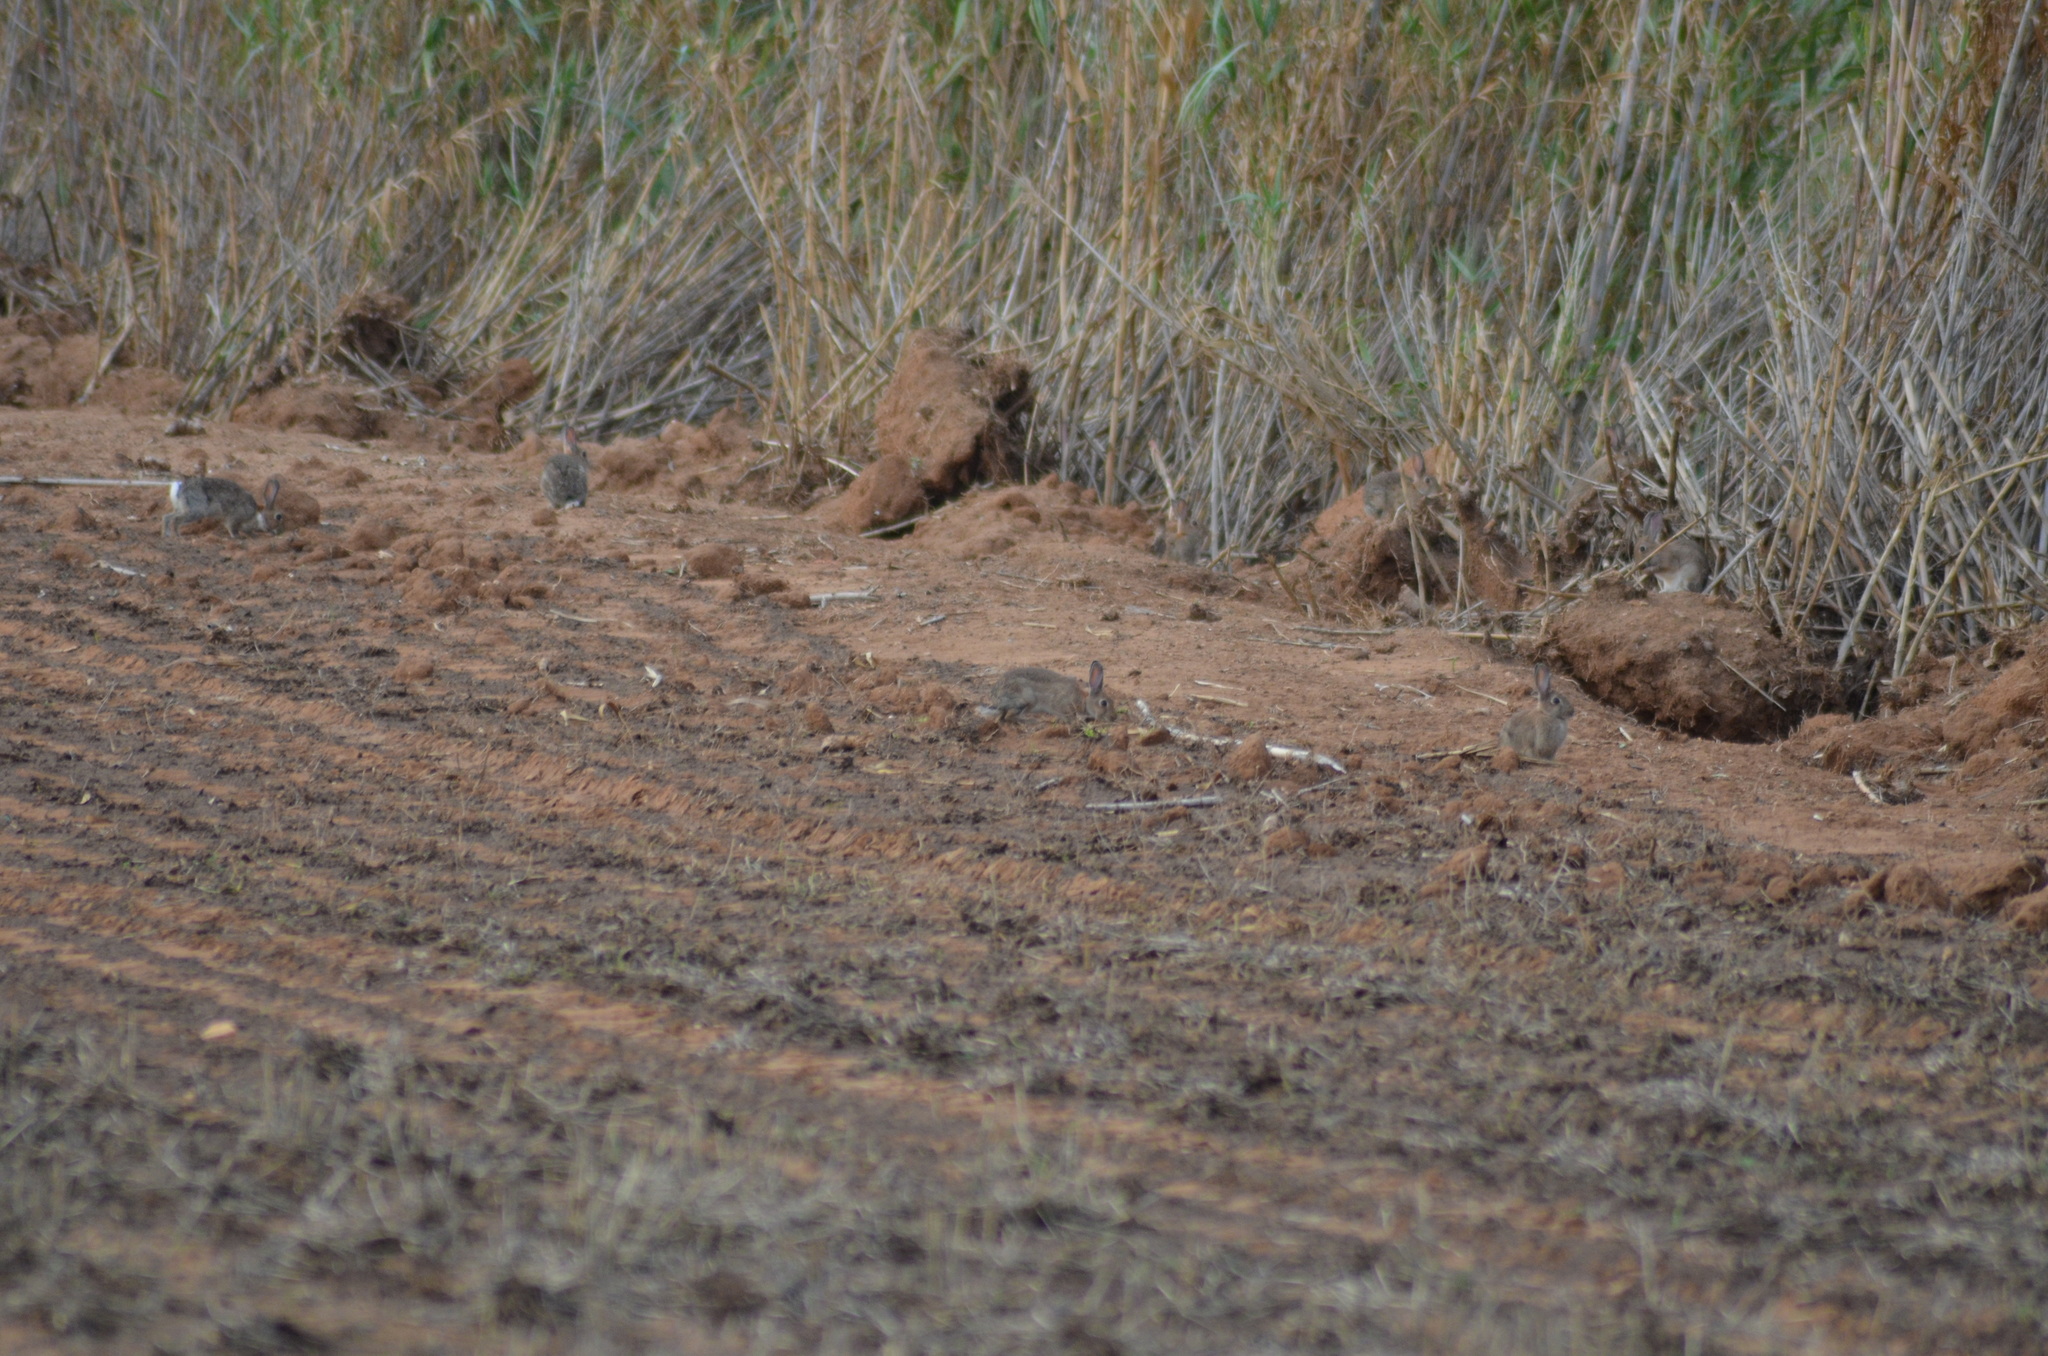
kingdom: Animalia
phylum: Chordata
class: Mammalia
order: Lagomorpha
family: Leporidae
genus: Oryctolagus
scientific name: Oryctolagus cuniculus
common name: European rabbit
